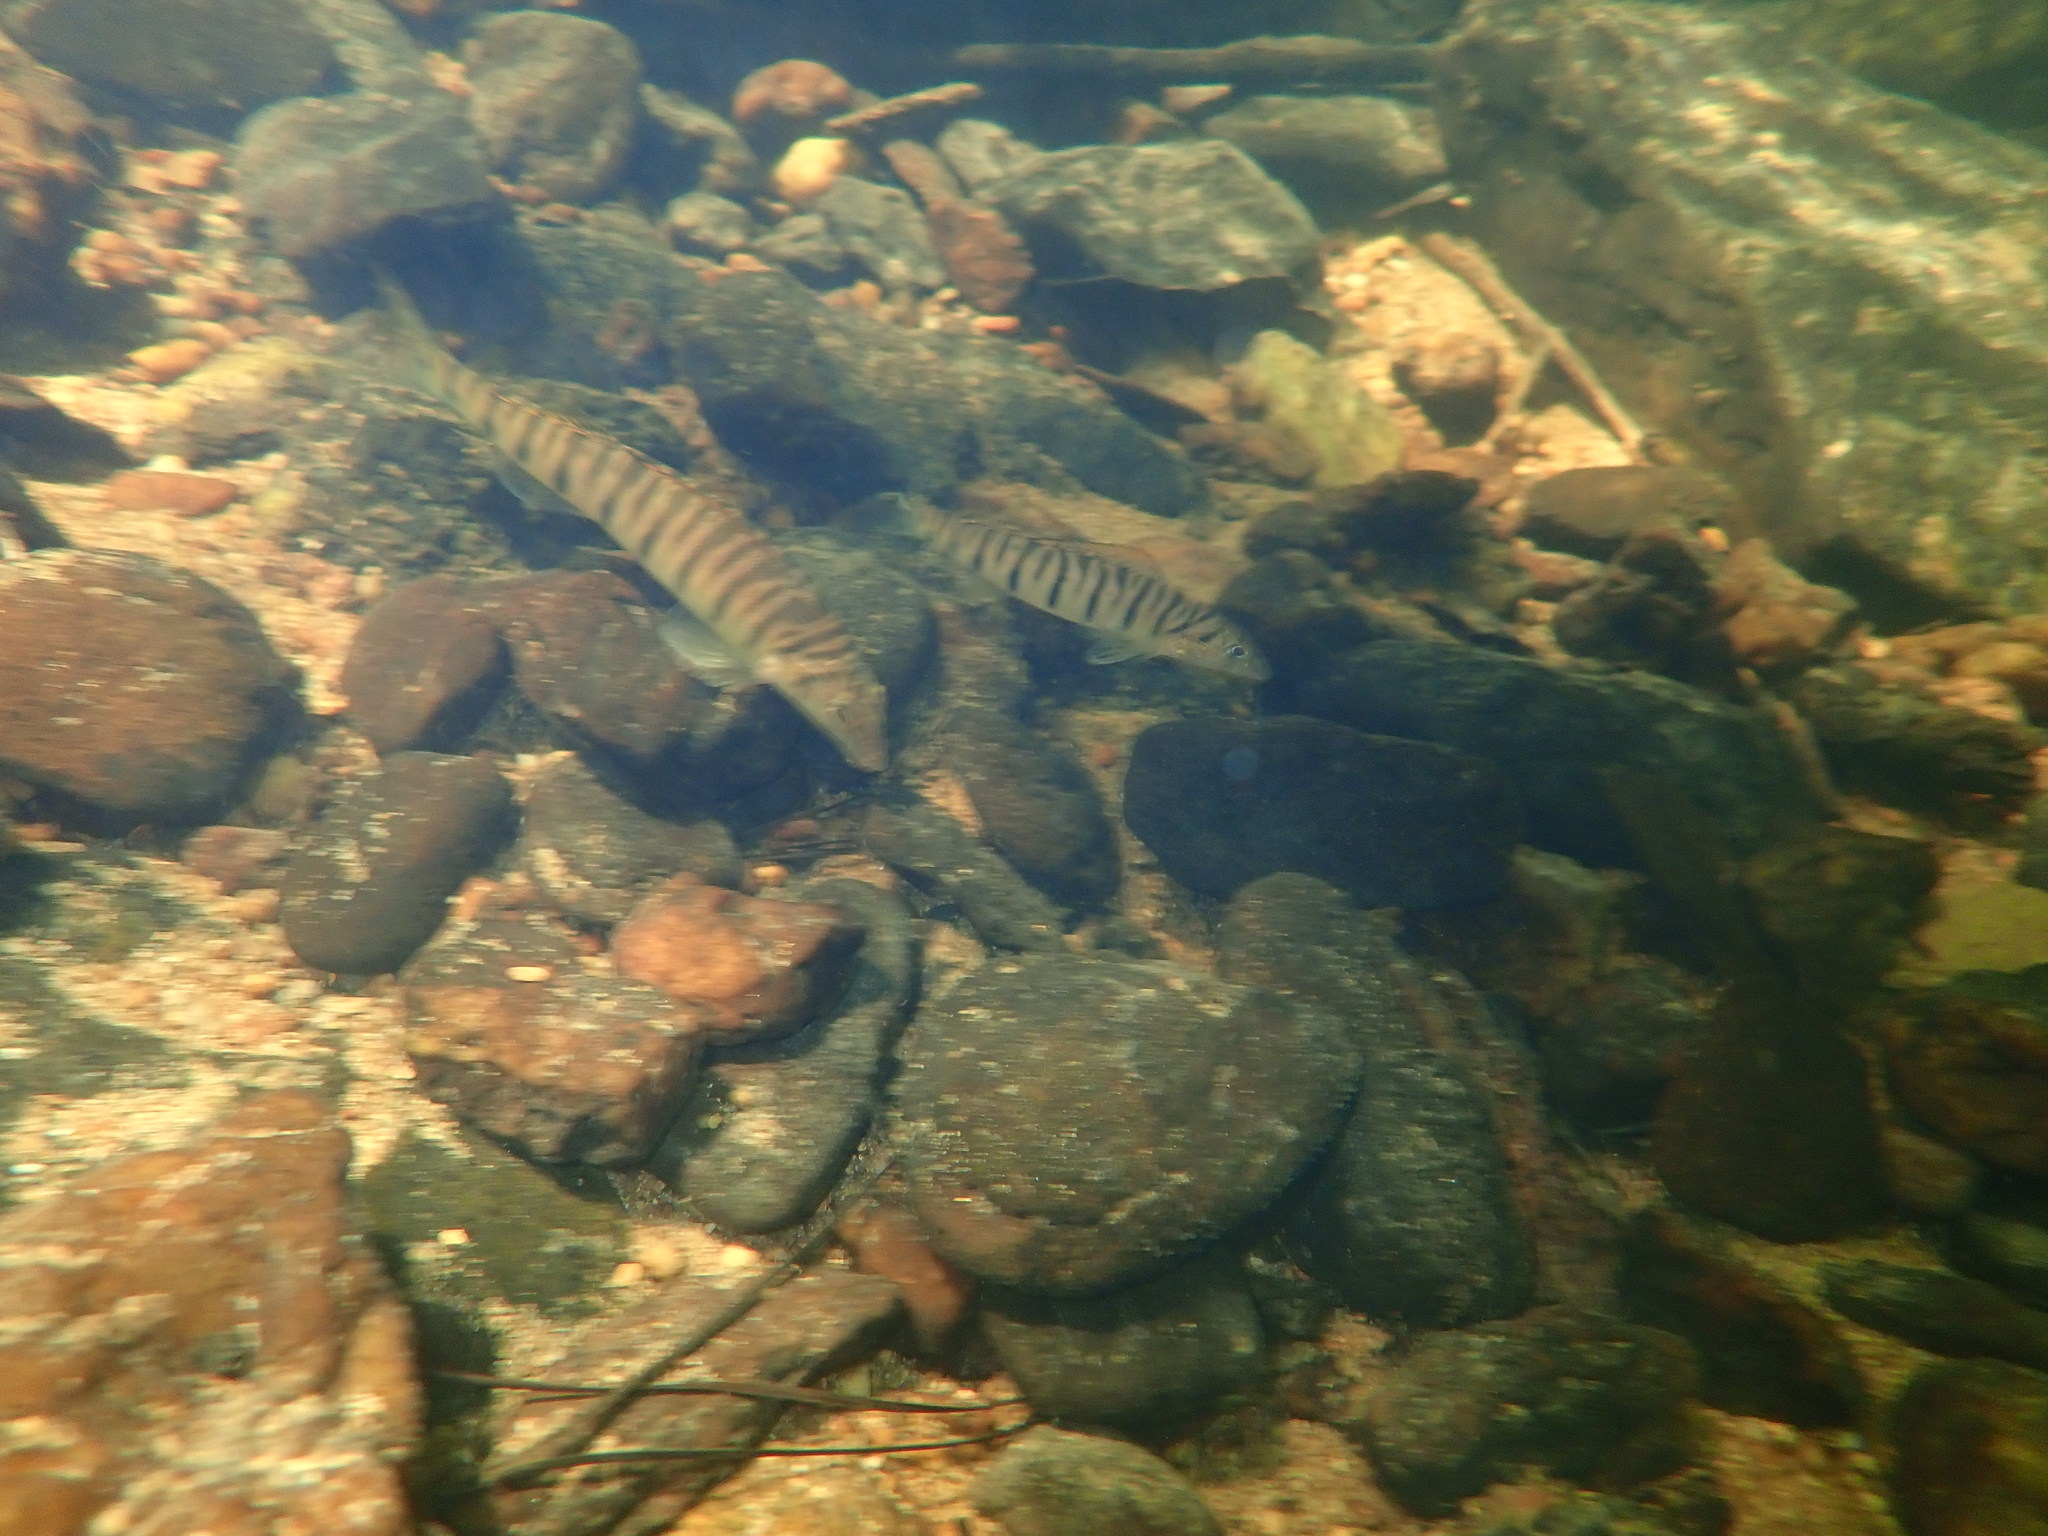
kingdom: Animalia
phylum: Chordata
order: Perciformes
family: Percidae
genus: Percina
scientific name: Percina kathae
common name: Mobile logperch
